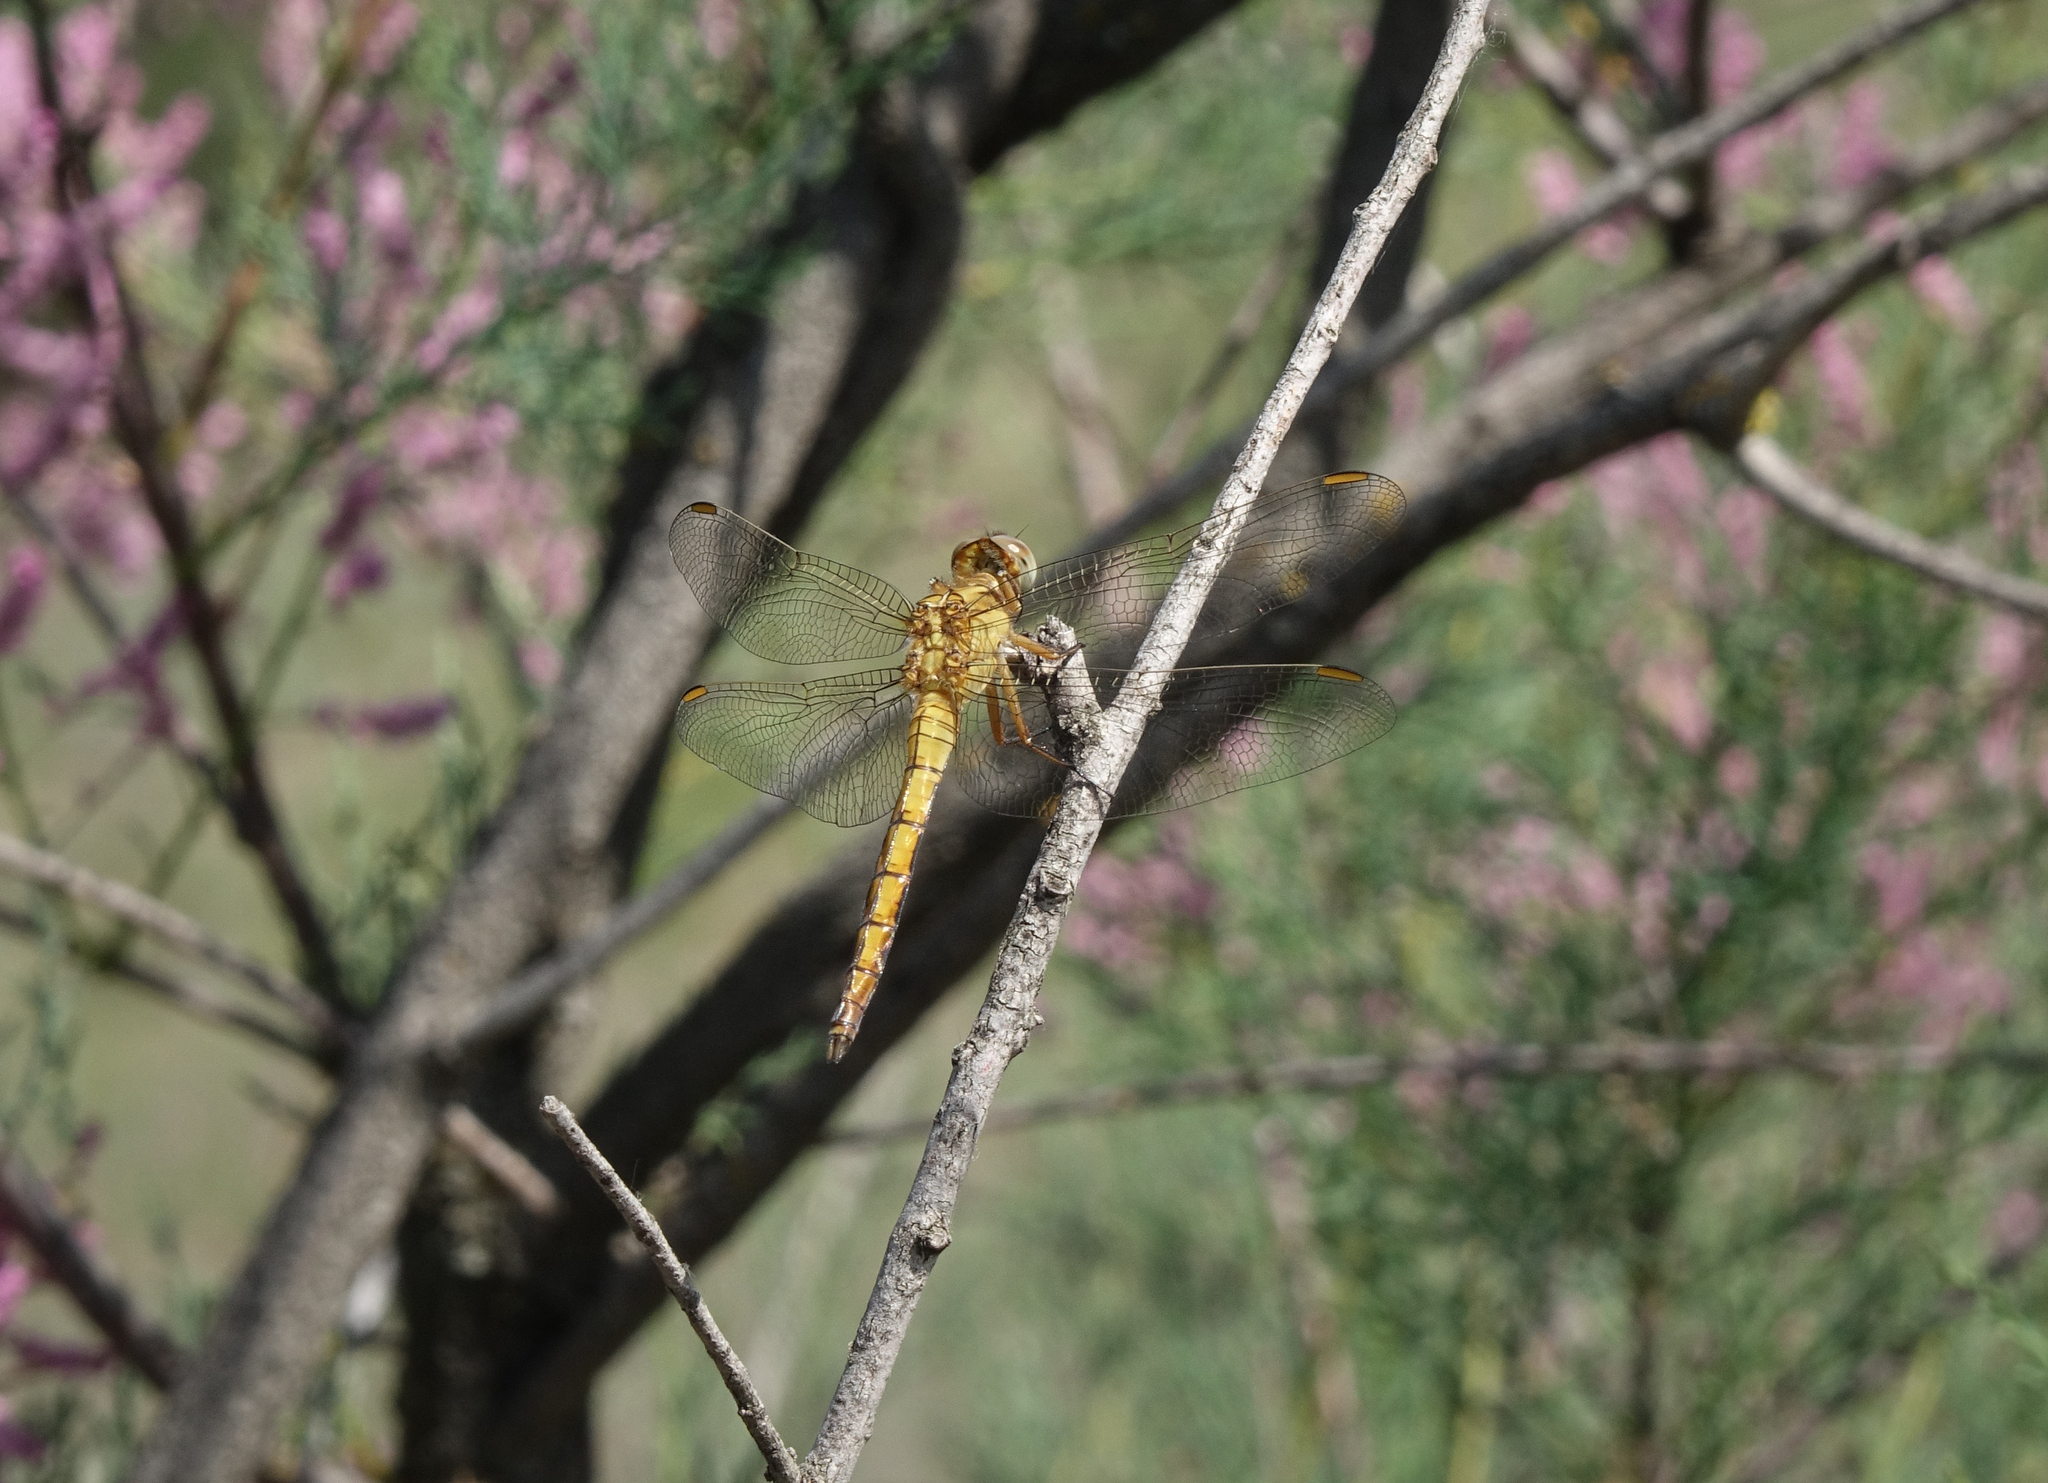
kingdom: Animalia
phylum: Arthropoda
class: Insecta
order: Odonata
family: Libellulidae
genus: Orthetrum
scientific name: Orthetrum coerulescens
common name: Keeled skimmer
